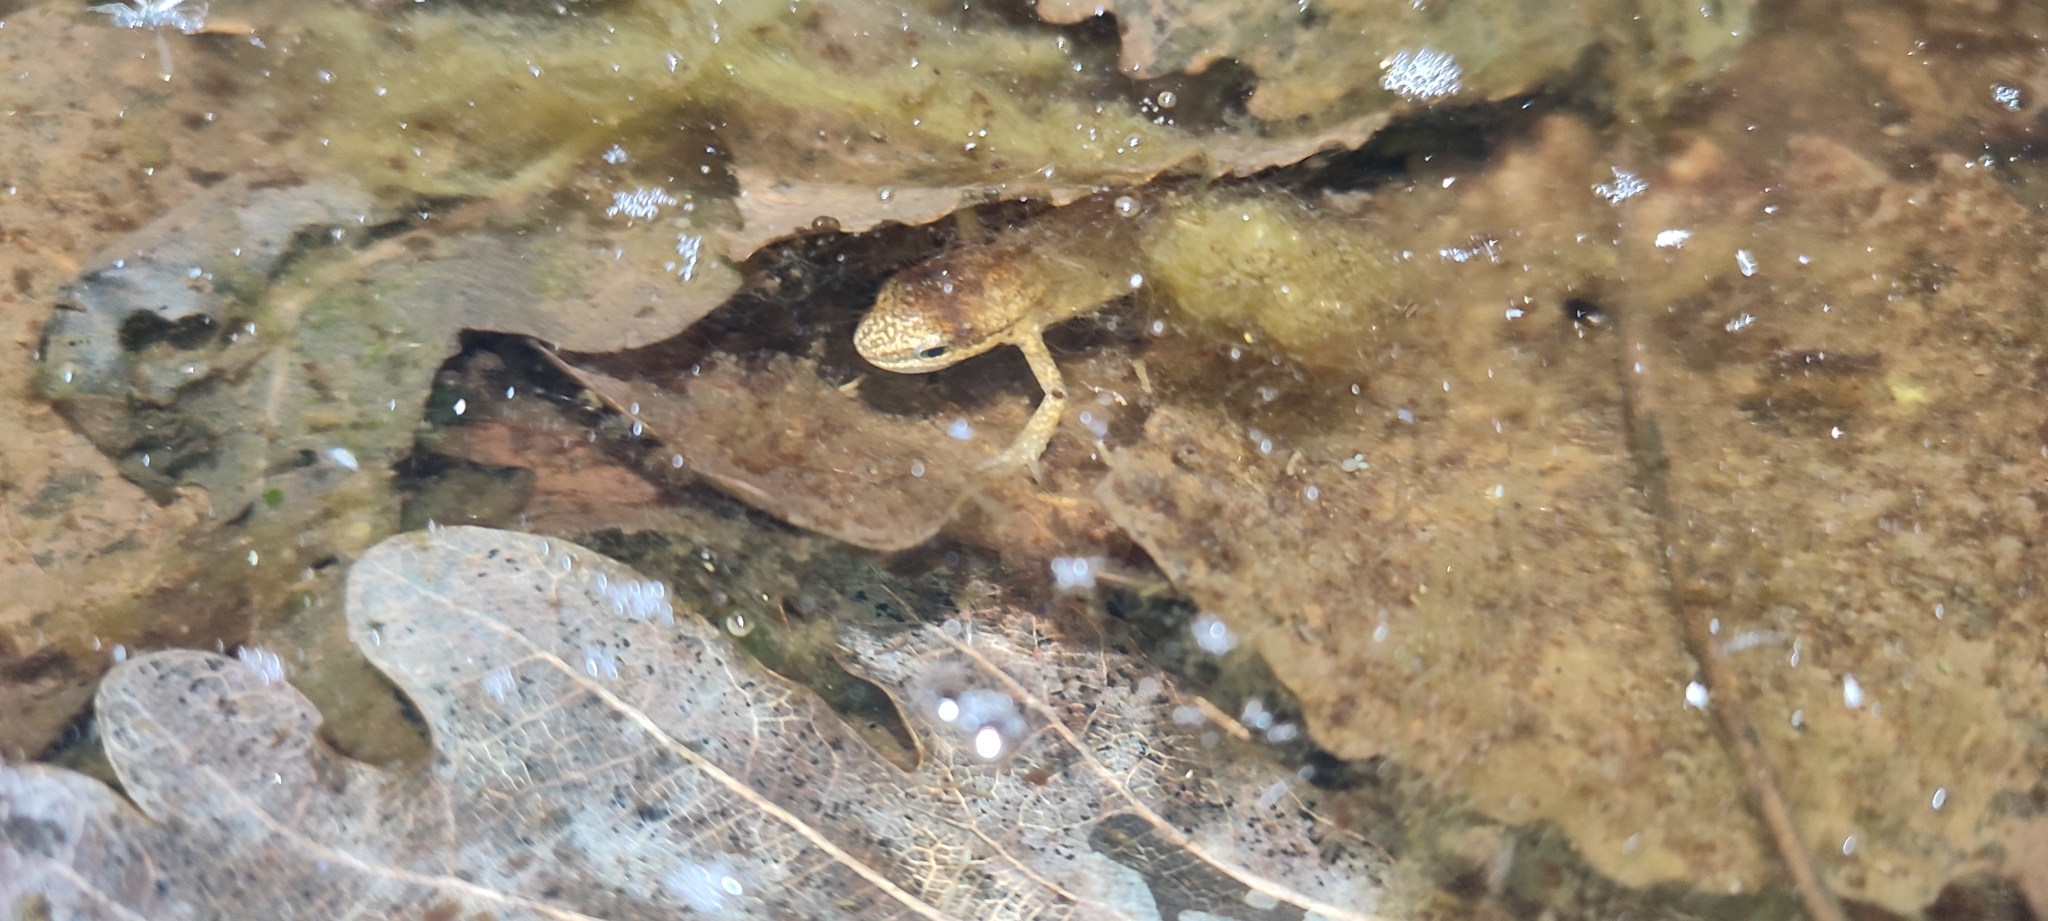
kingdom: Animalia
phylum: Chordata
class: Amphibia
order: Caudata
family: Salamandridae
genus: Lissotriton
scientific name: Lissotriton helveticus
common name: Palmate newt
